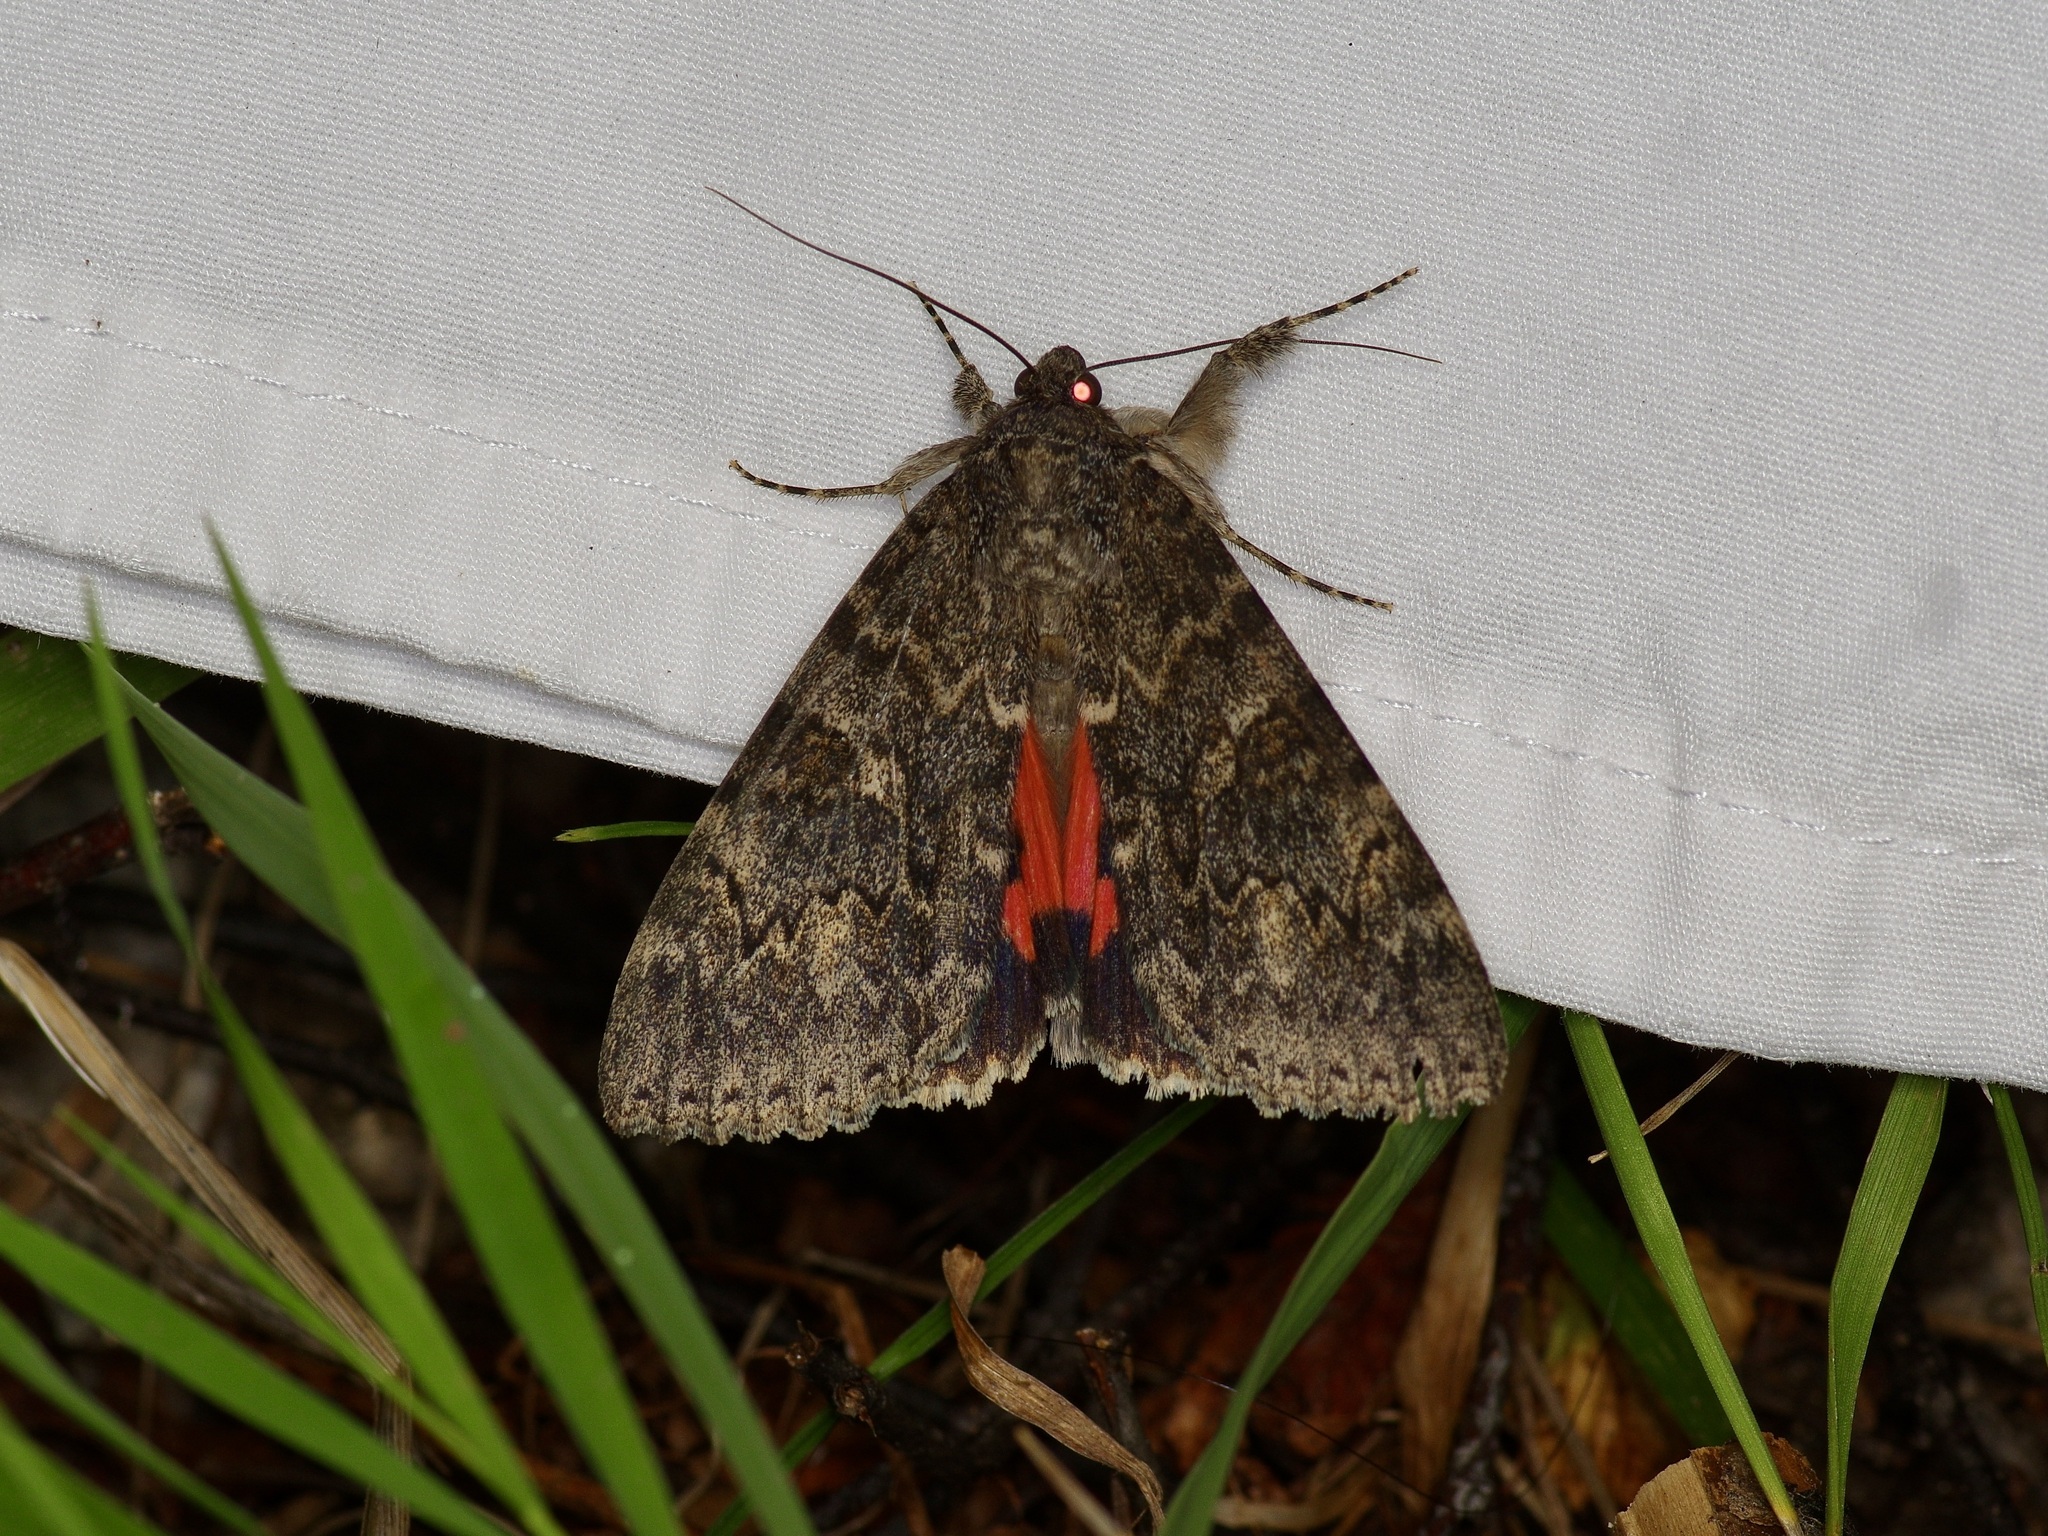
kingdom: Animalia
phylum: Arthropoda
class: Insecta
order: Lepidoptera
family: Erebidae
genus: Catocala
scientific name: Catocala californica
